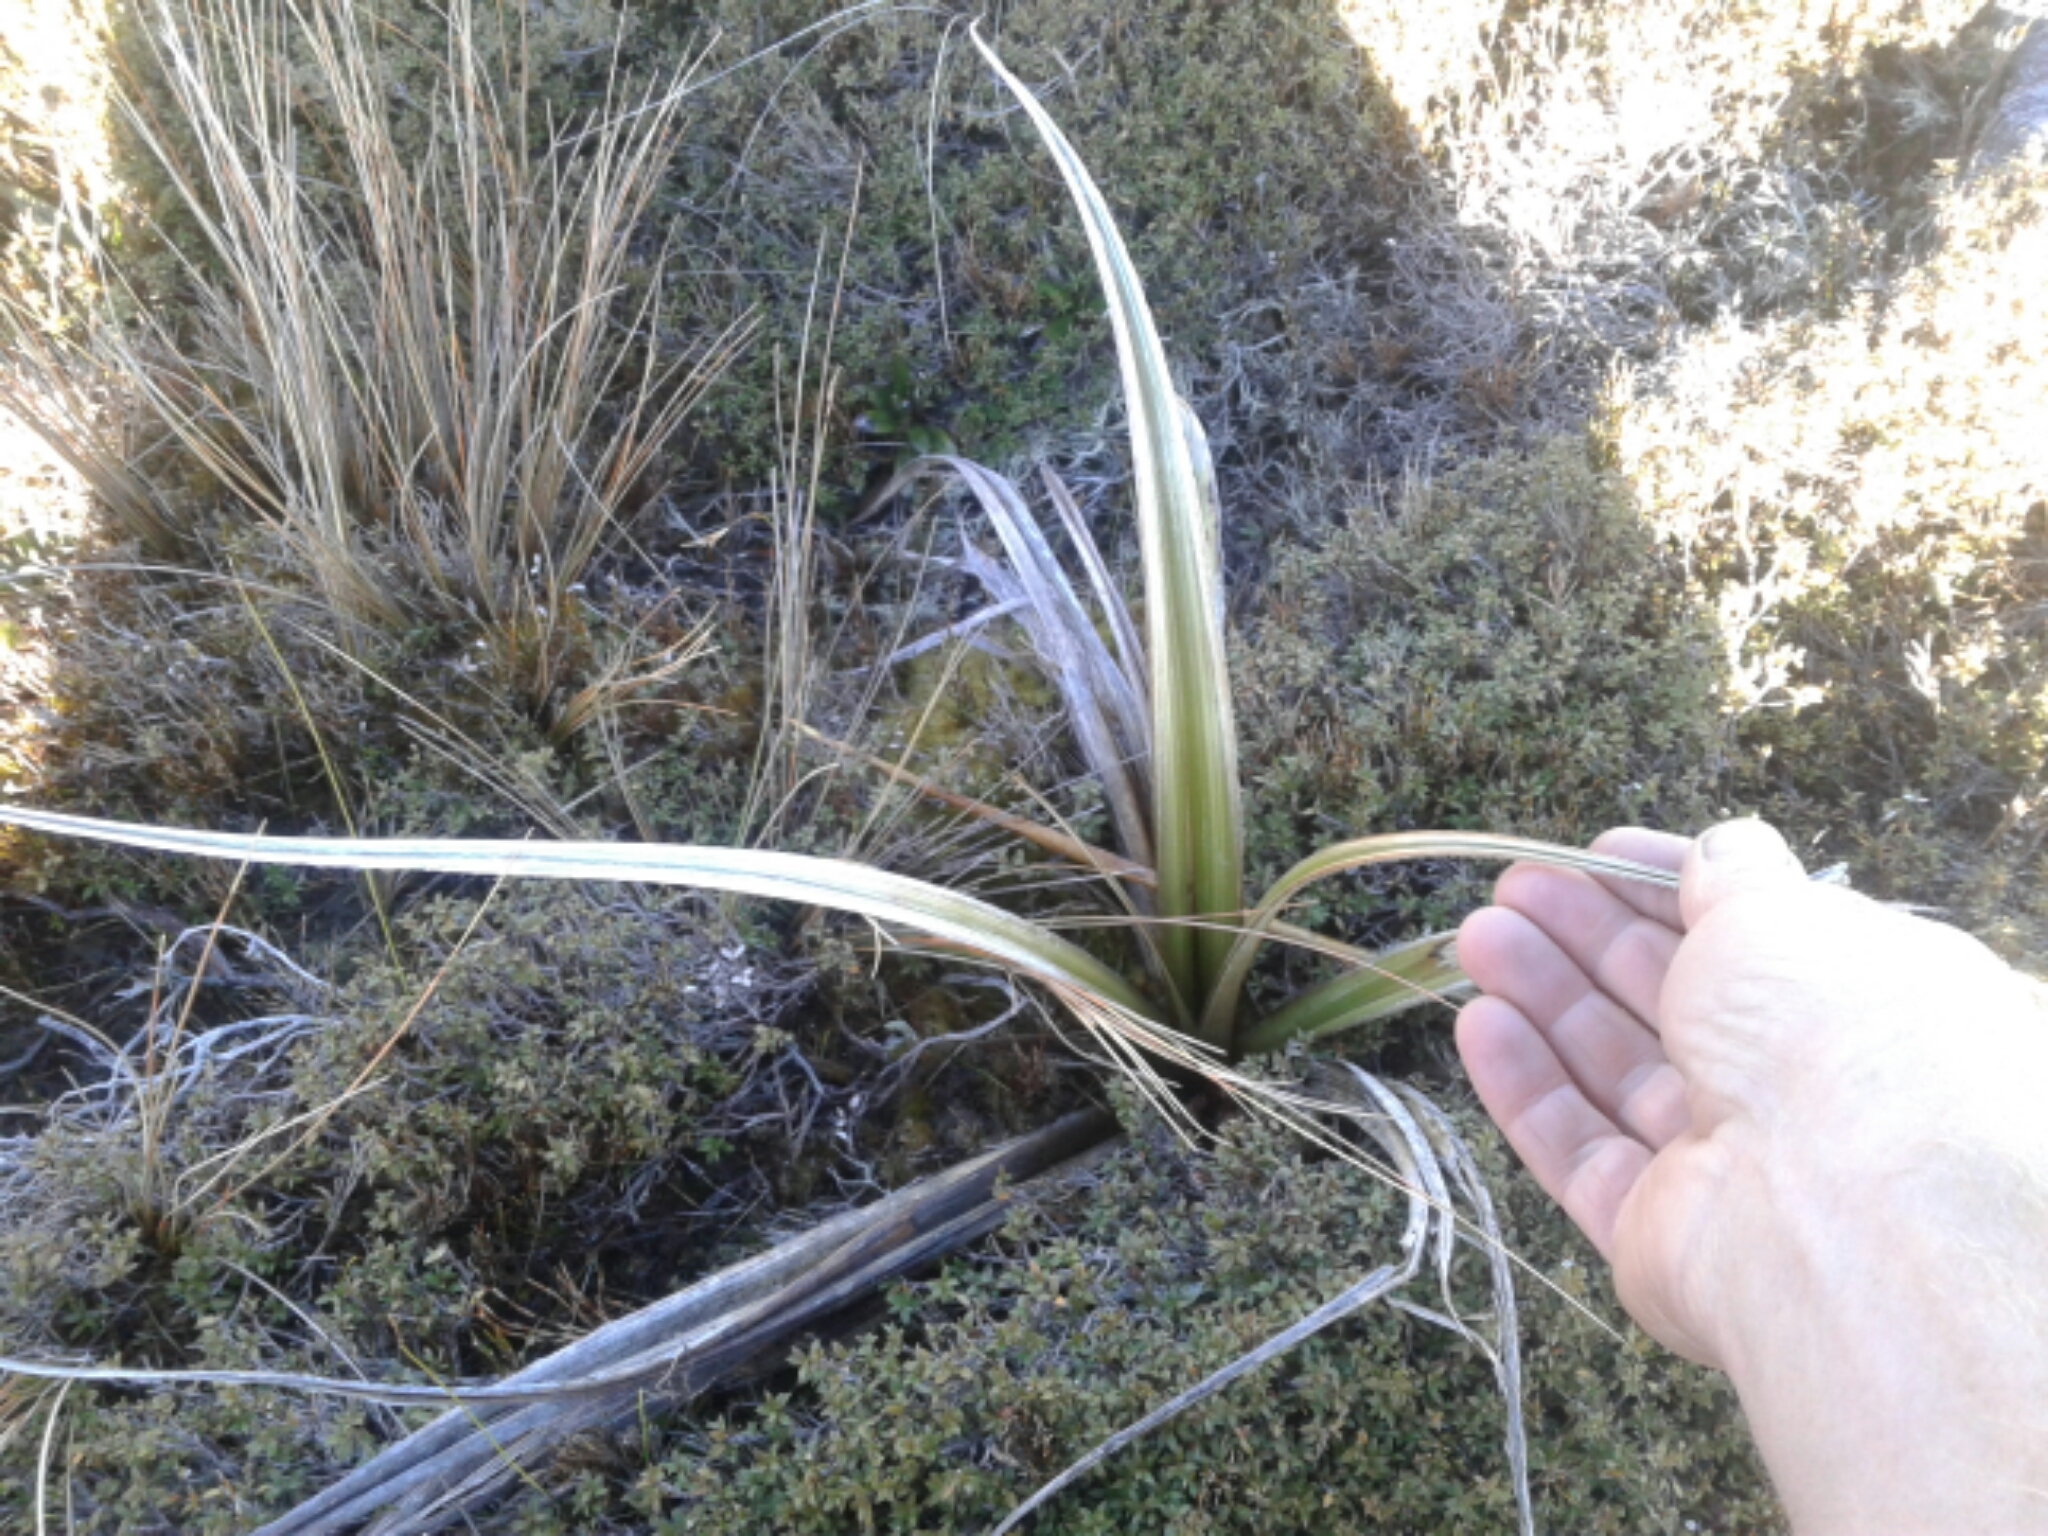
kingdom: Plantae
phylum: Tracheophyta
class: Liliopsida
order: Asparagales
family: Asteliaceae
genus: Astelia
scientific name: Astelia nervosa
